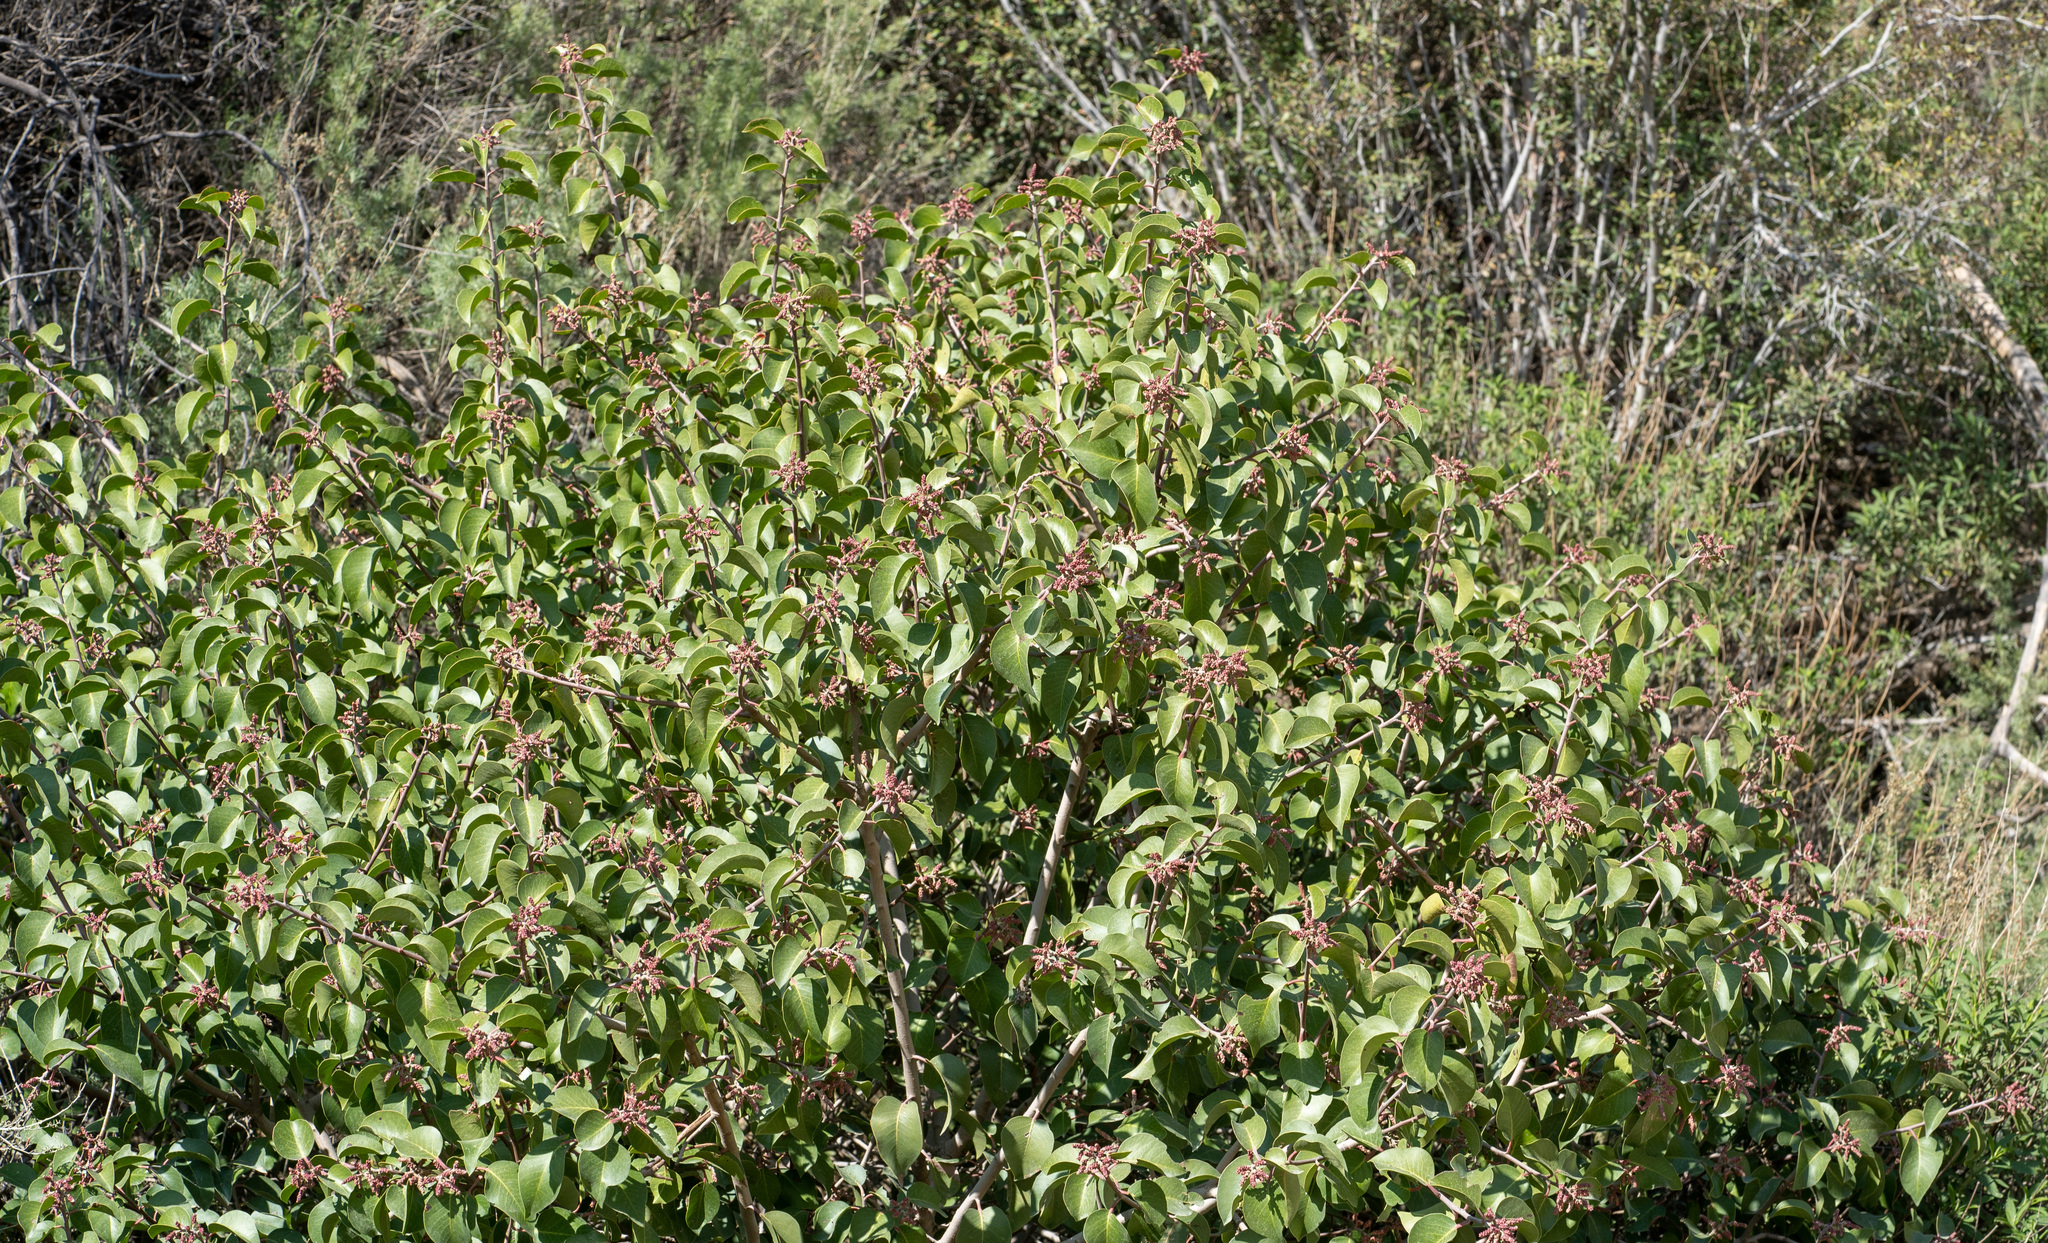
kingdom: Plantae
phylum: Tracheophyta
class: Magnoliopsida
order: Sapindales
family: Anacardiaceae
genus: Rhus
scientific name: Rhus ovata
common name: Sugar sumac
